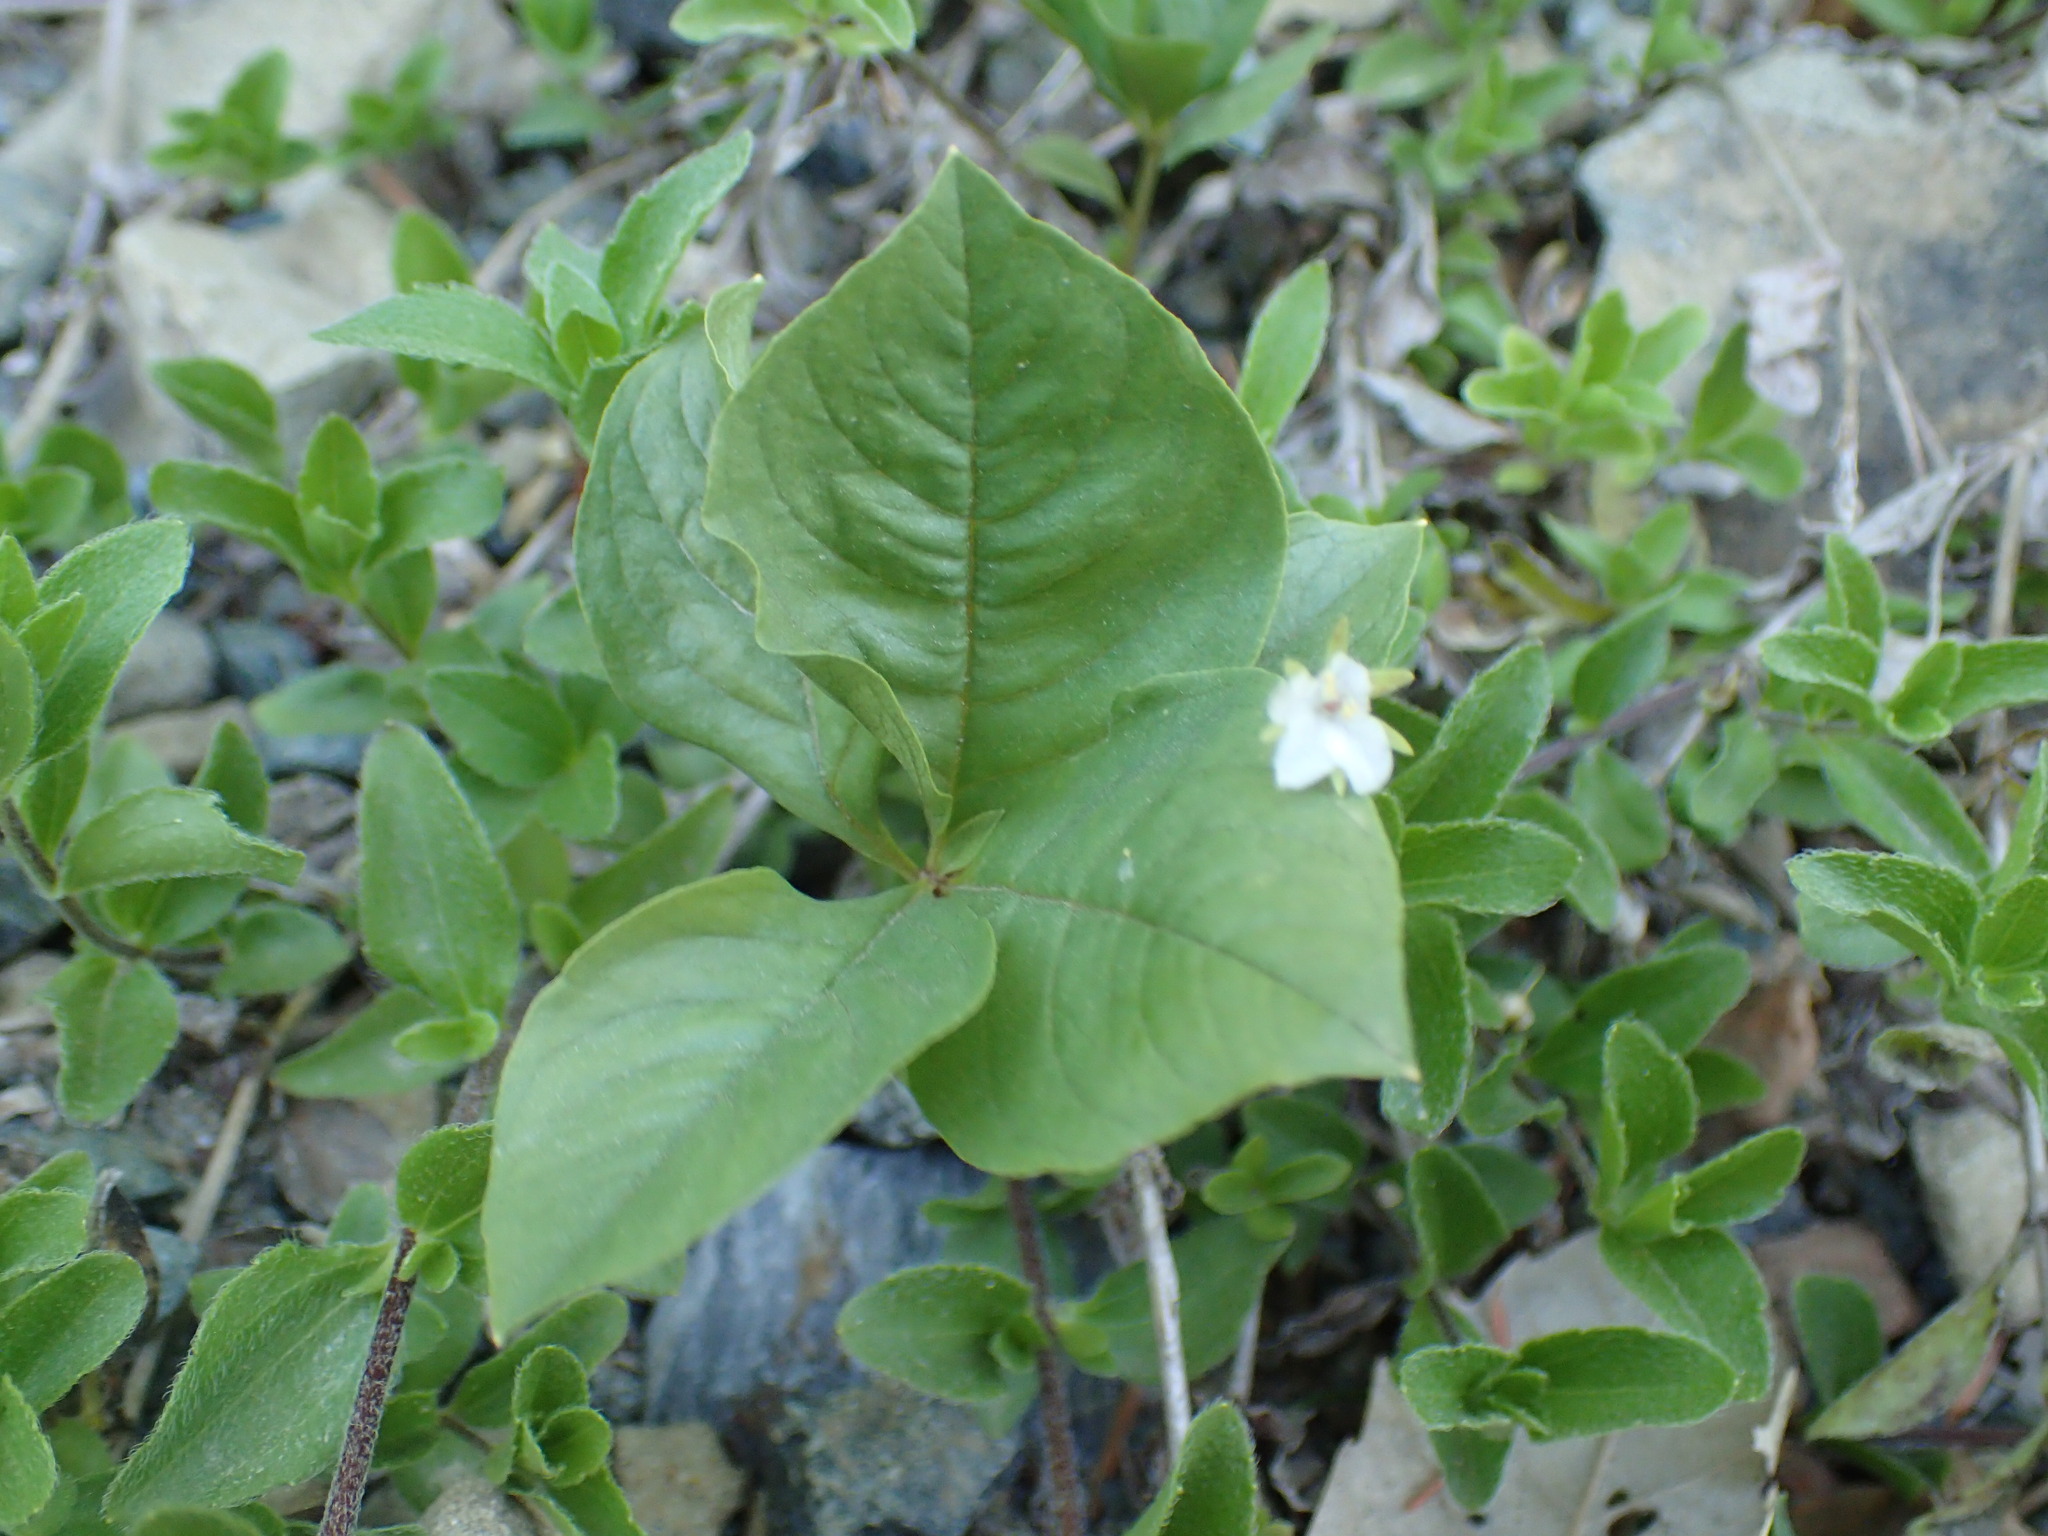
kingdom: Plantae
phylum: Tracheophyta
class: Magnoliopsida
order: Ericales
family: Primulaceae
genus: Lysimachia
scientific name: Lysimachia latifolia
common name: Pacific starflower
